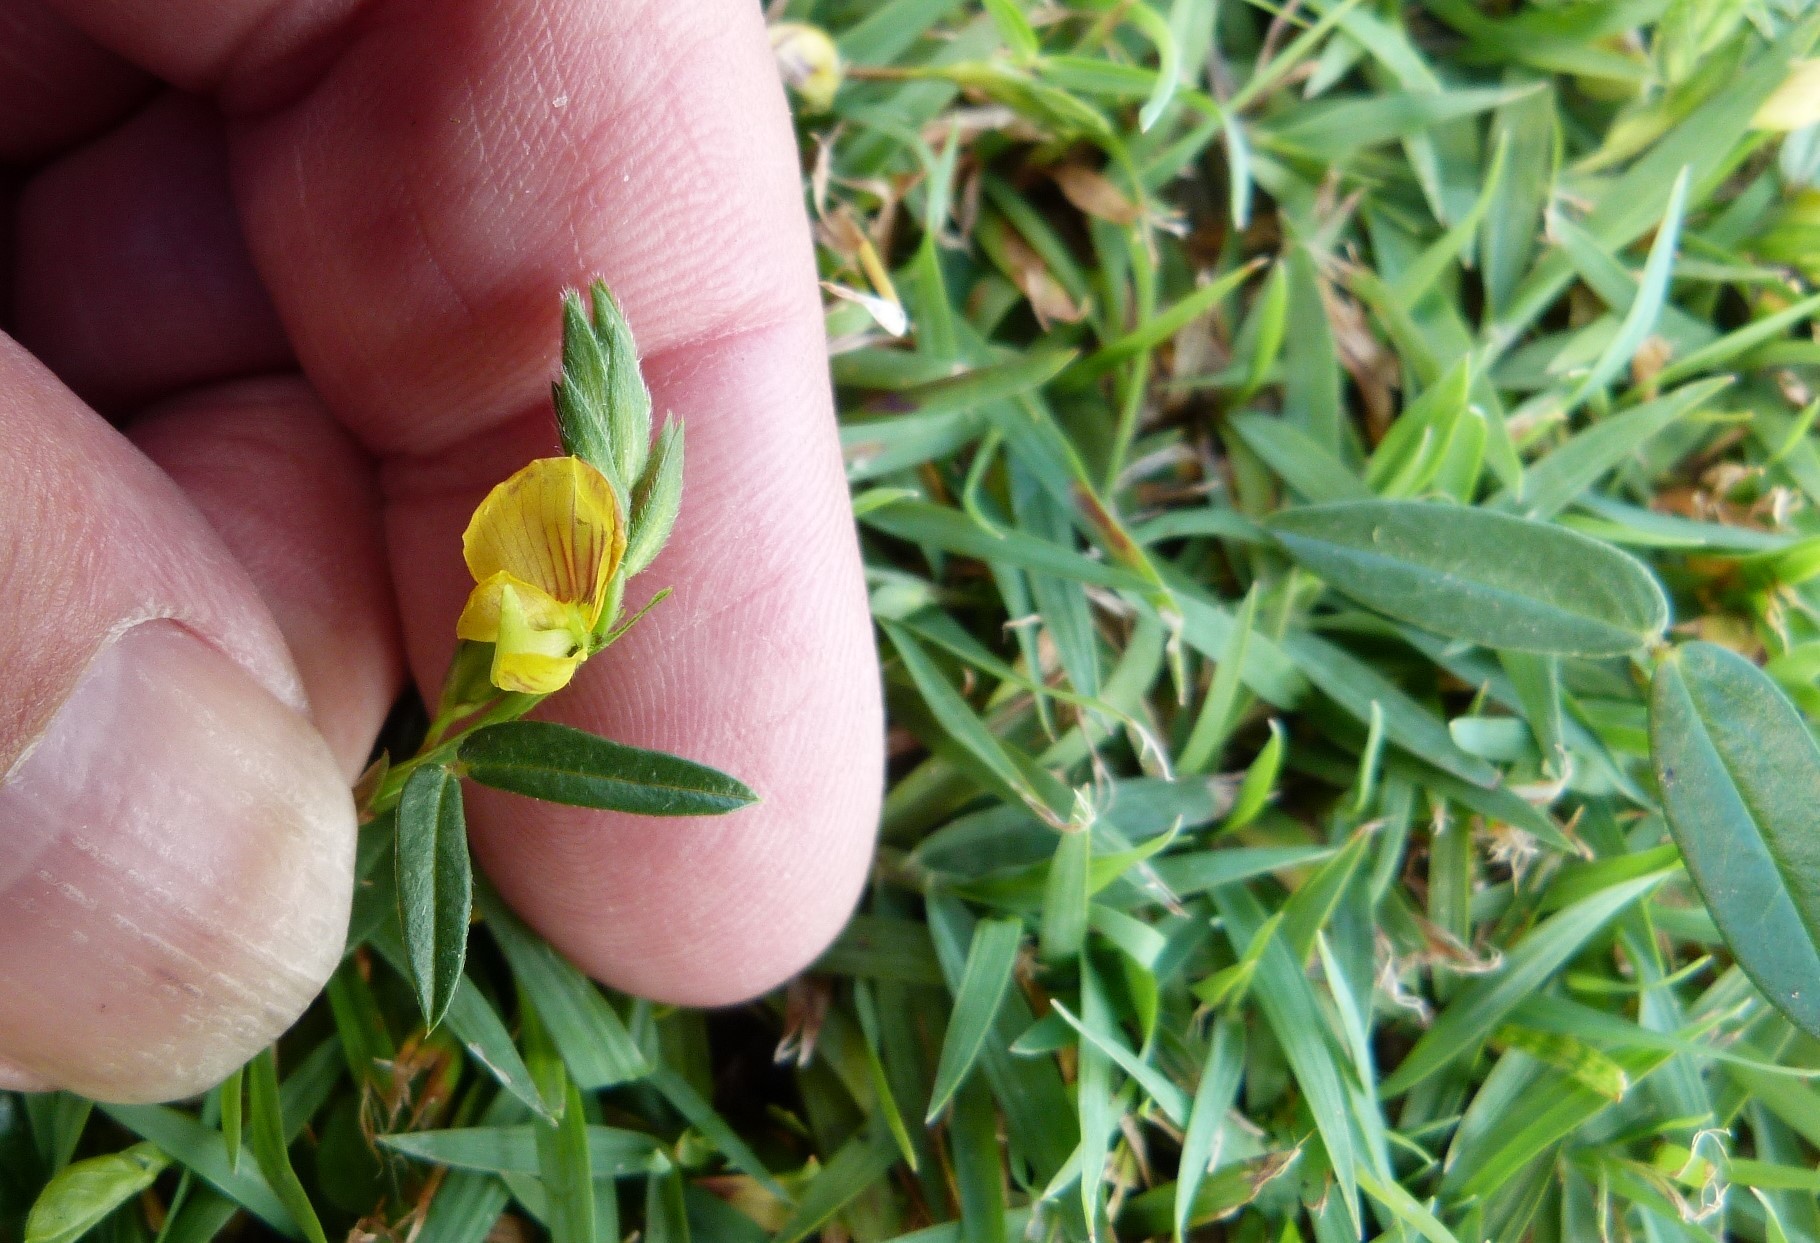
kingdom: Plantae
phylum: Tracheophyta
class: Magnoliopsida
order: Fabales
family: Fabaceae
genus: Zornia
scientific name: Zornia dyctiocarpa
